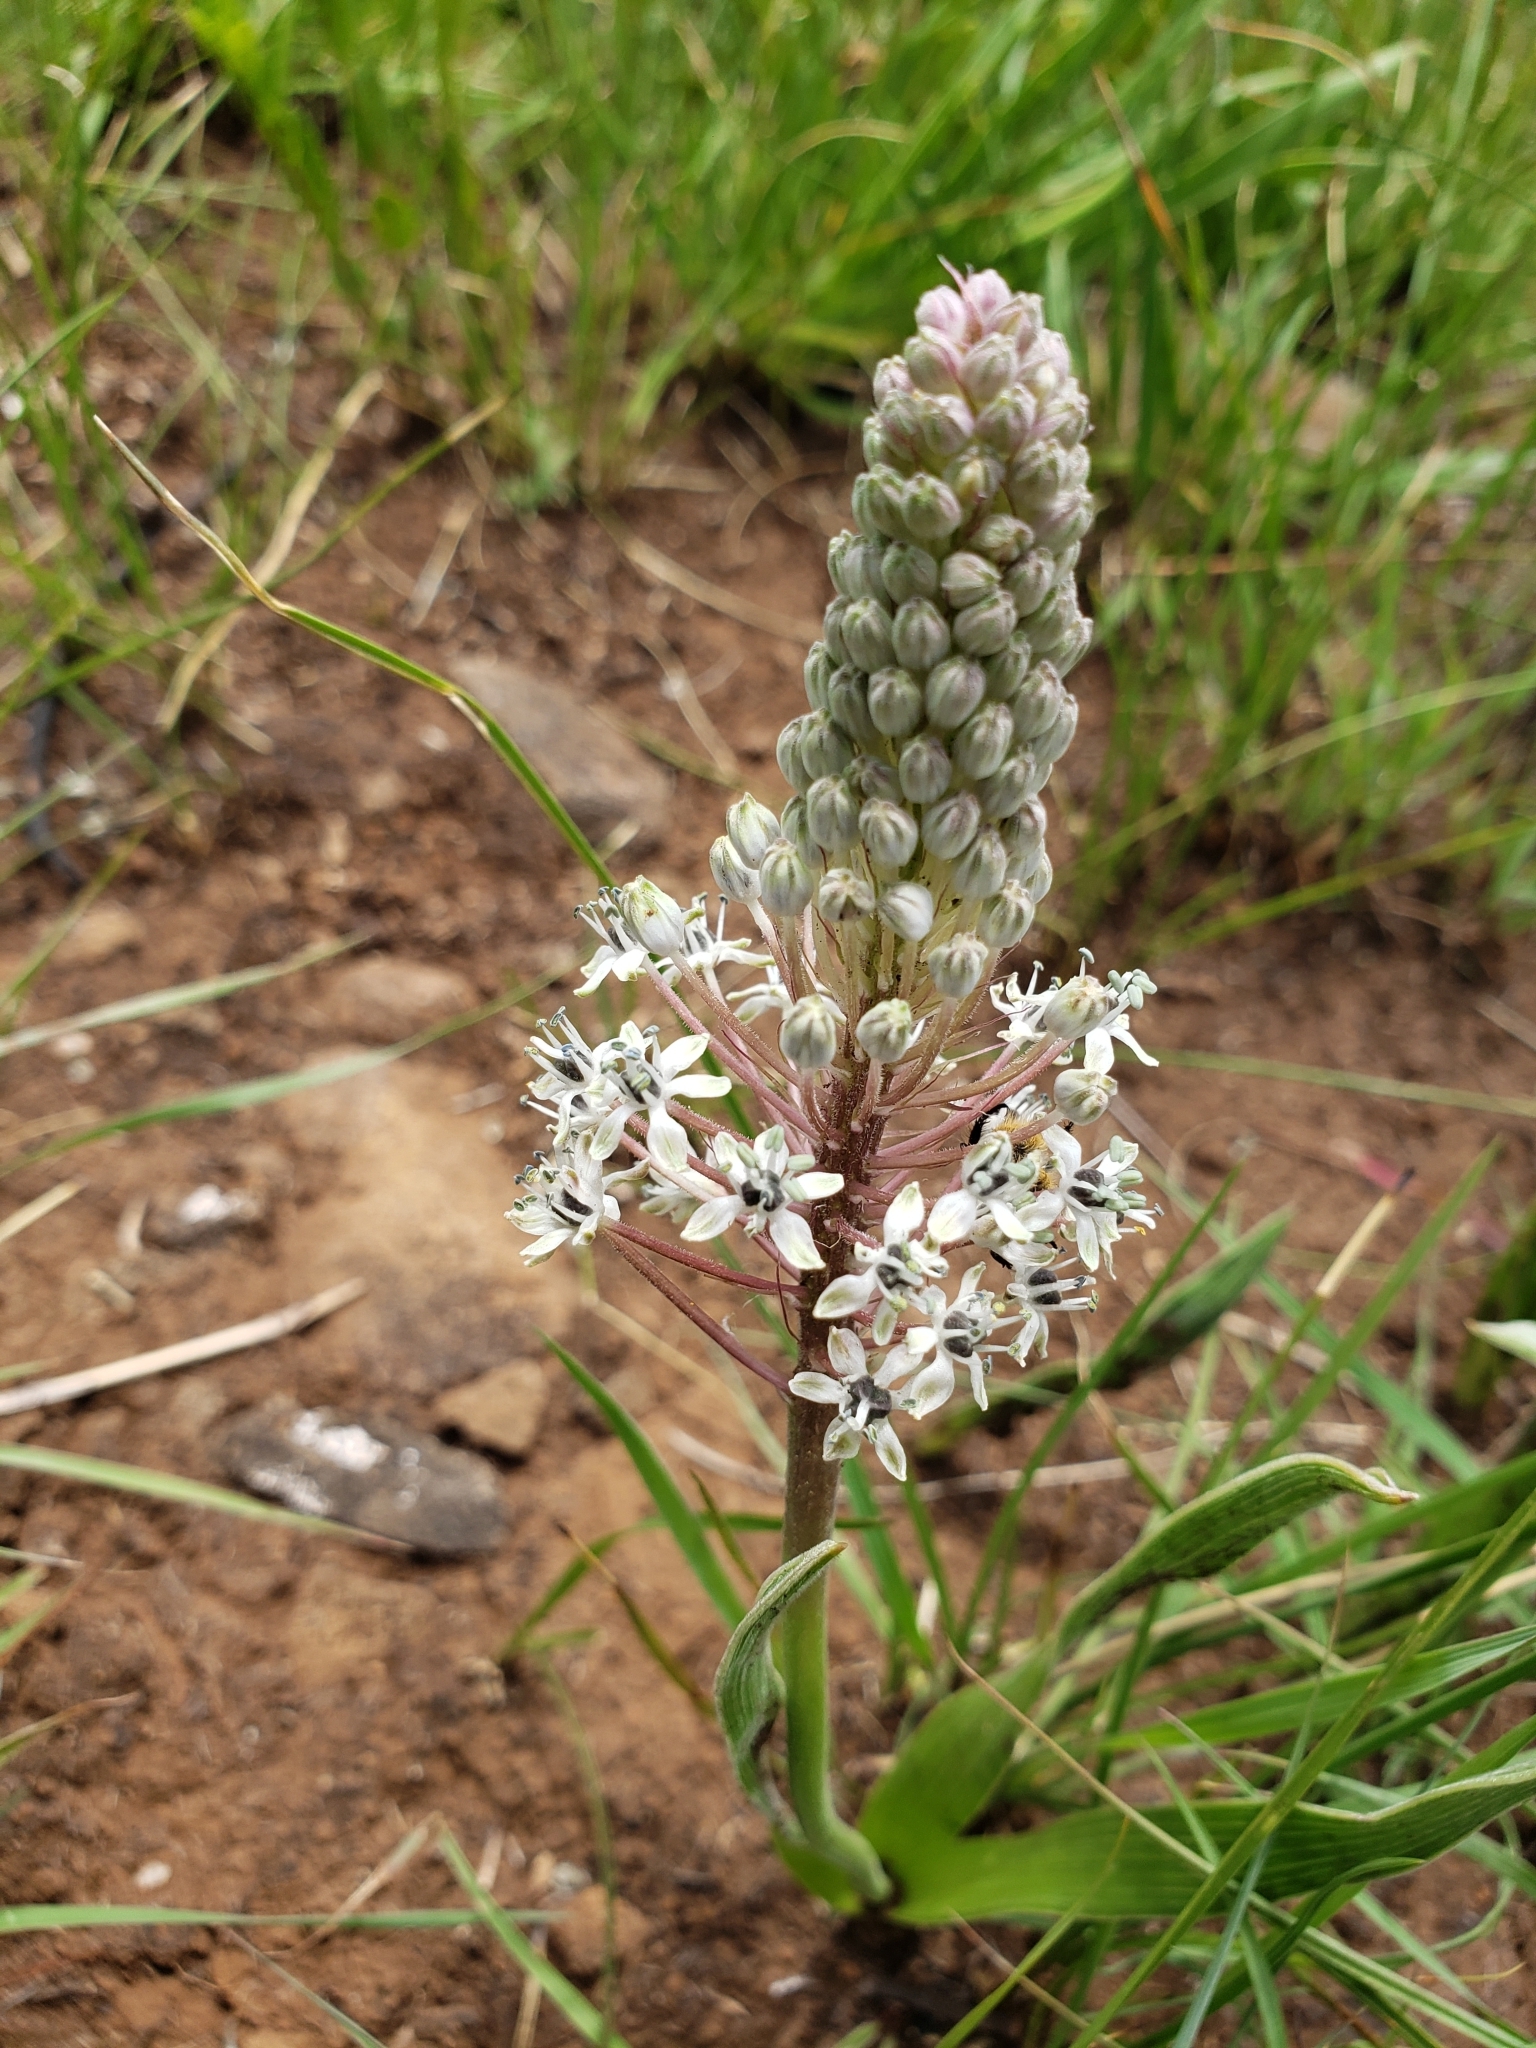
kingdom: Plantae
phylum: Tracheophyta
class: Liliopsida
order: Asparagales
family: Asparagaceae
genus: Schizocarphus
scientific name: Schizocarphus nervosus
